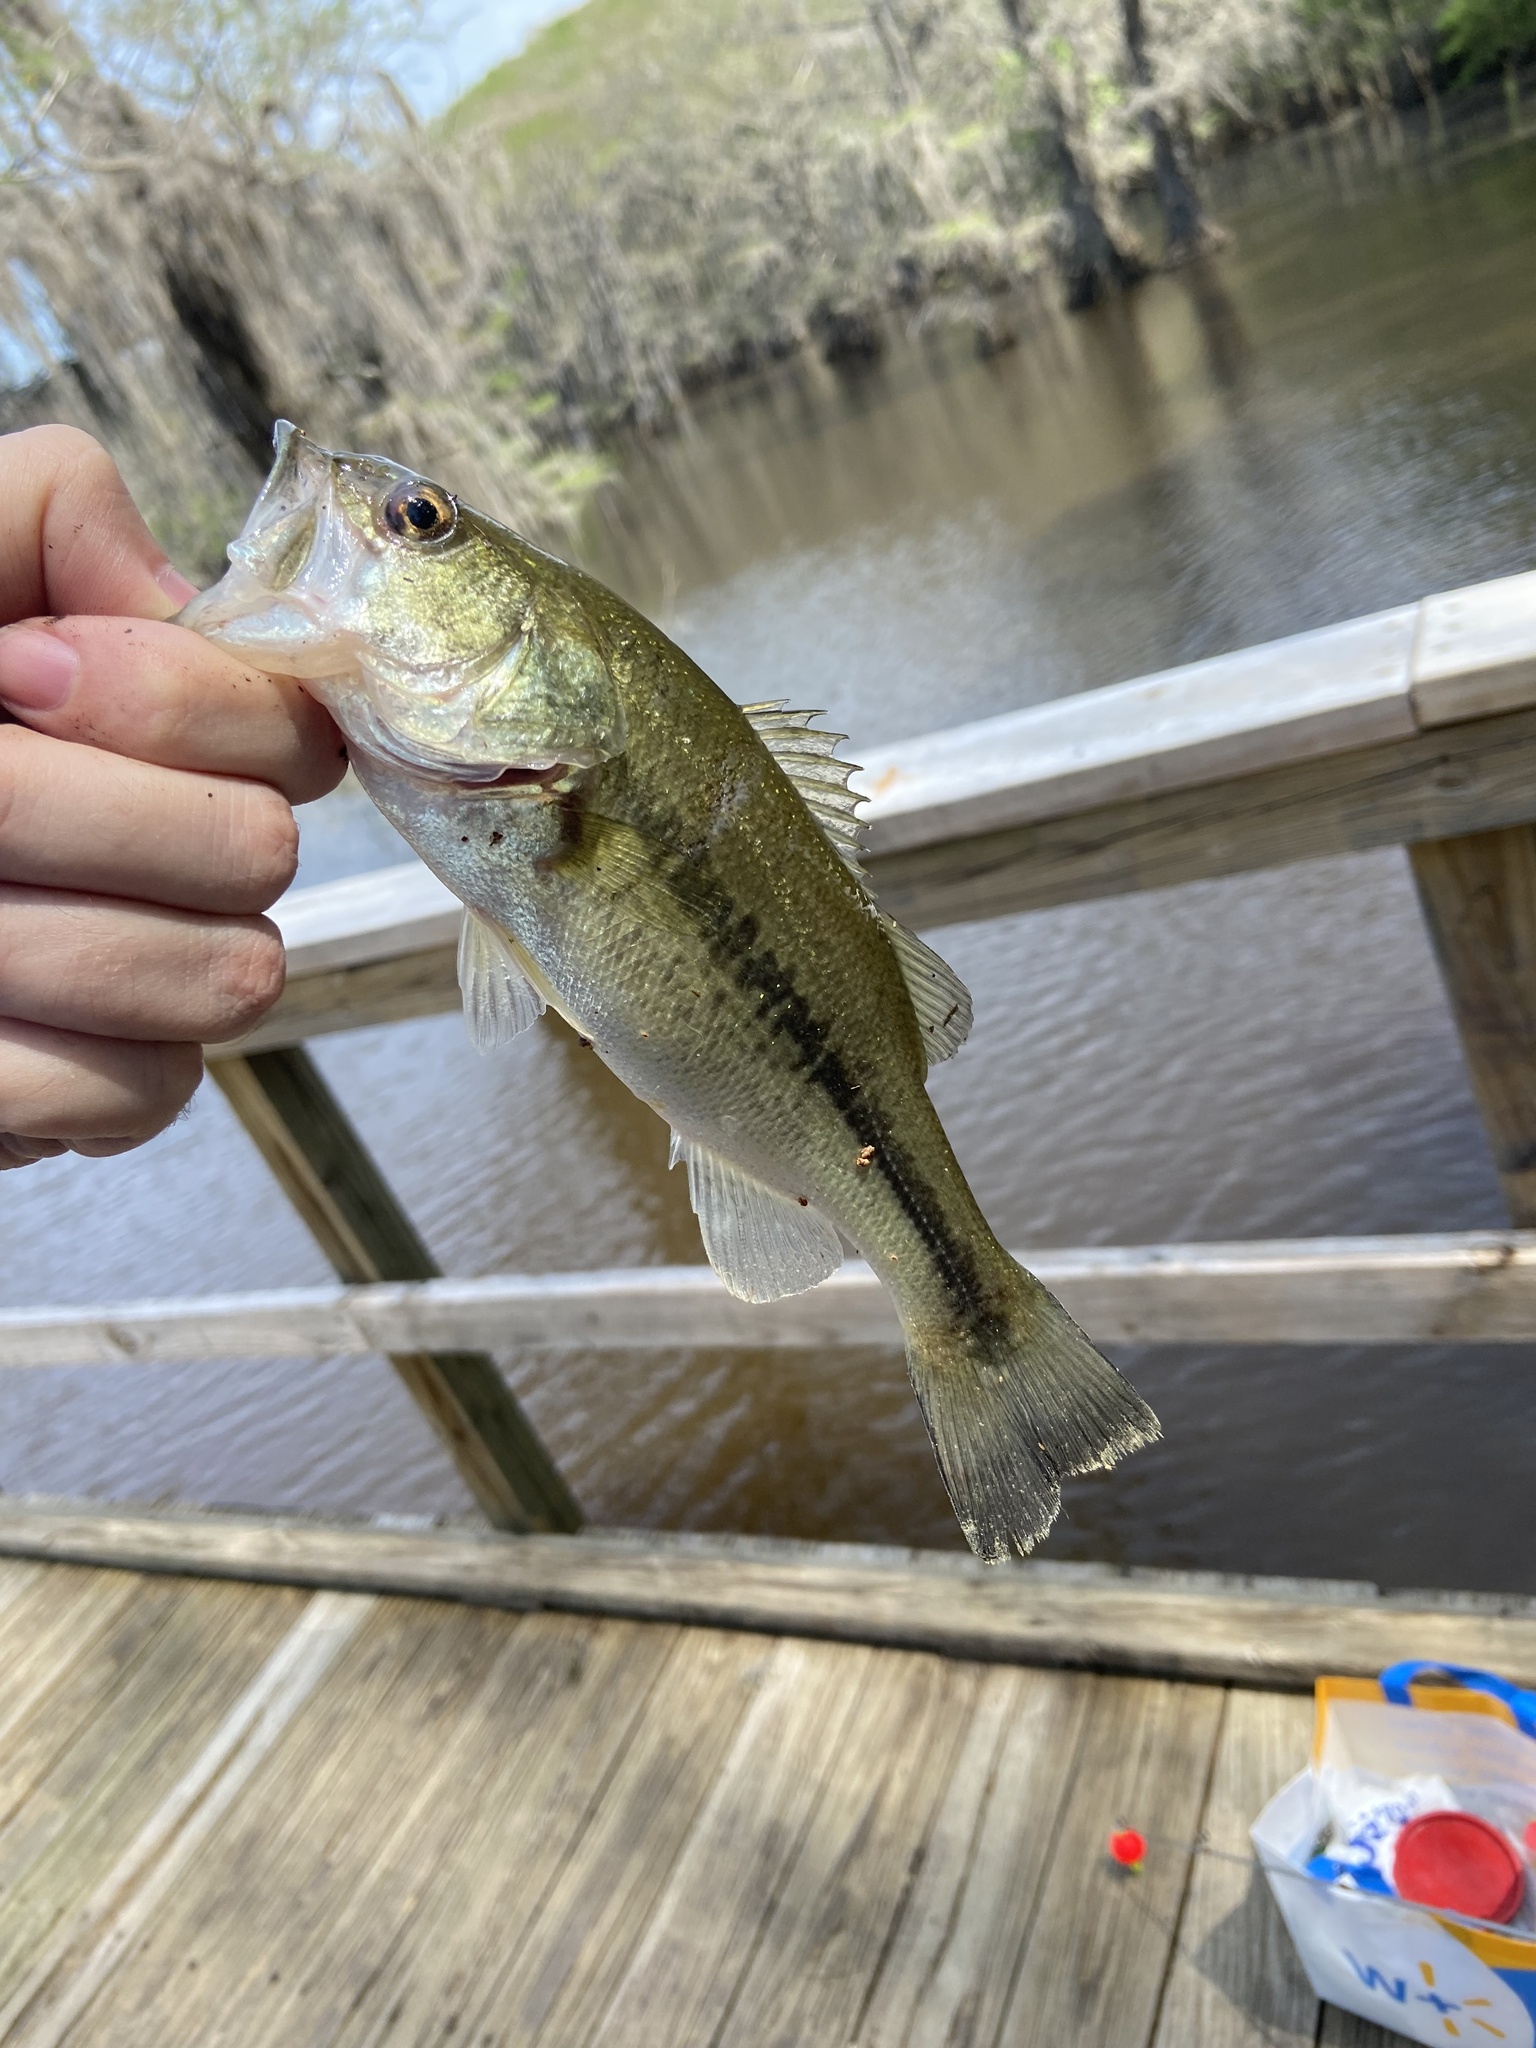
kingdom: Animalia
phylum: Chordata
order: Perciformes
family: Centrarchidae
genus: Micropterus
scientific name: Micropterus
